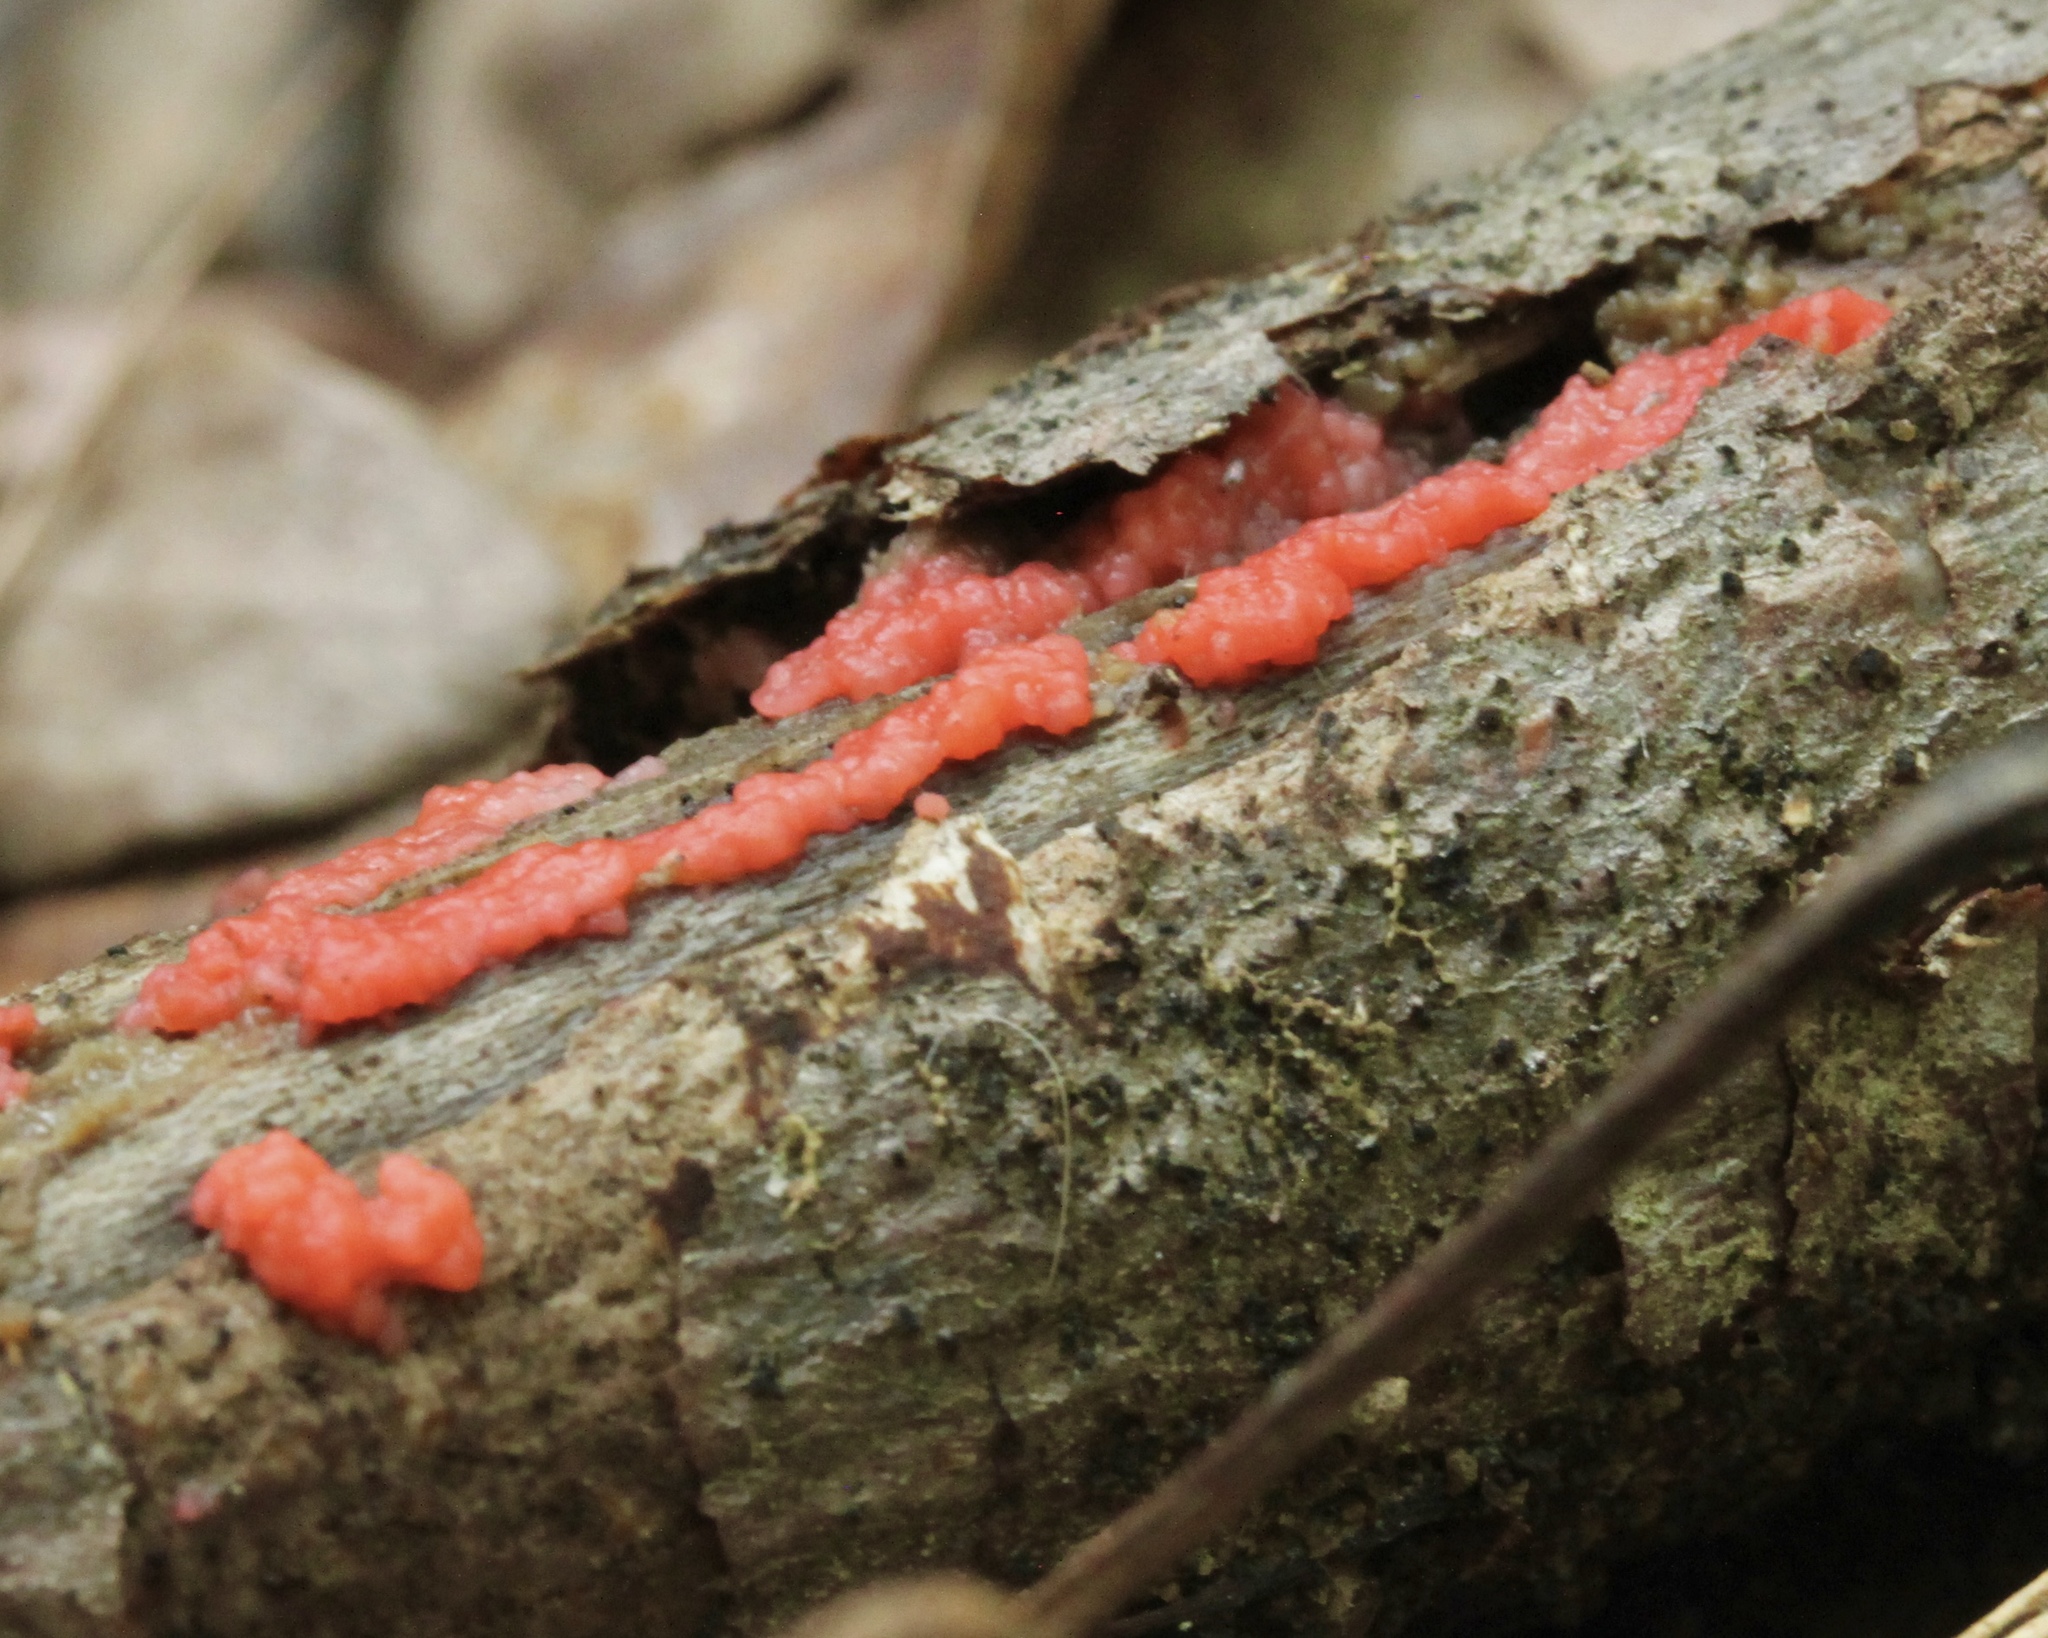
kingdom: Fungi
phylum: Basidiomycota
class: Agaricomycetes
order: Cantharellales
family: Tulasnellaceae
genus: Tulasnella
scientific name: Tulasnella aurantiaca
